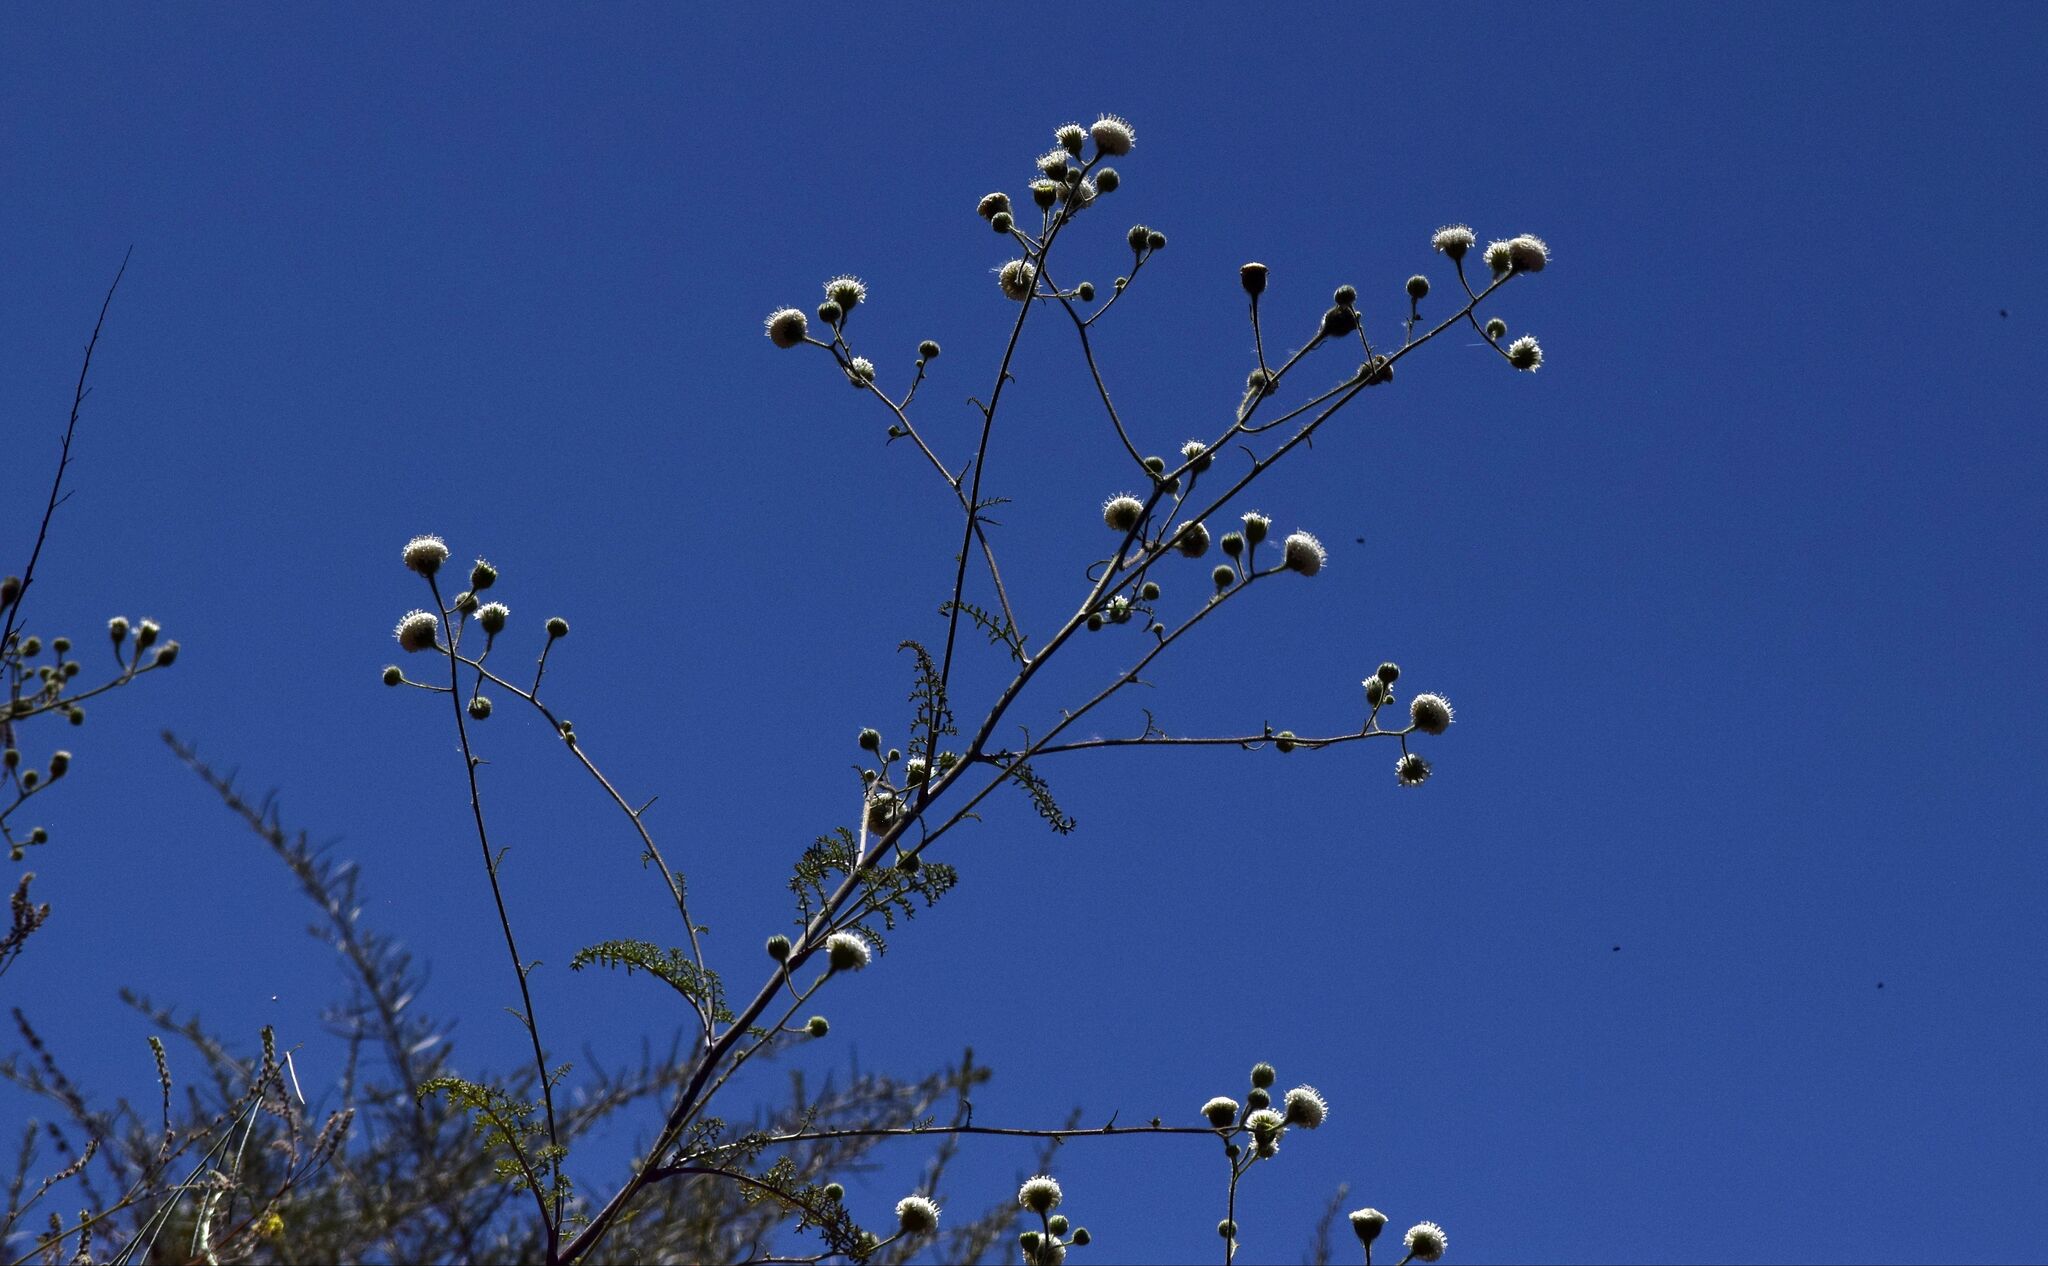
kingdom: Plantae
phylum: Tracheophyta
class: Magnoliopsida
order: Asterales
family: Asteraceae
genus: Chaenactis
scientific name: Chaenactis artemisiifolia
